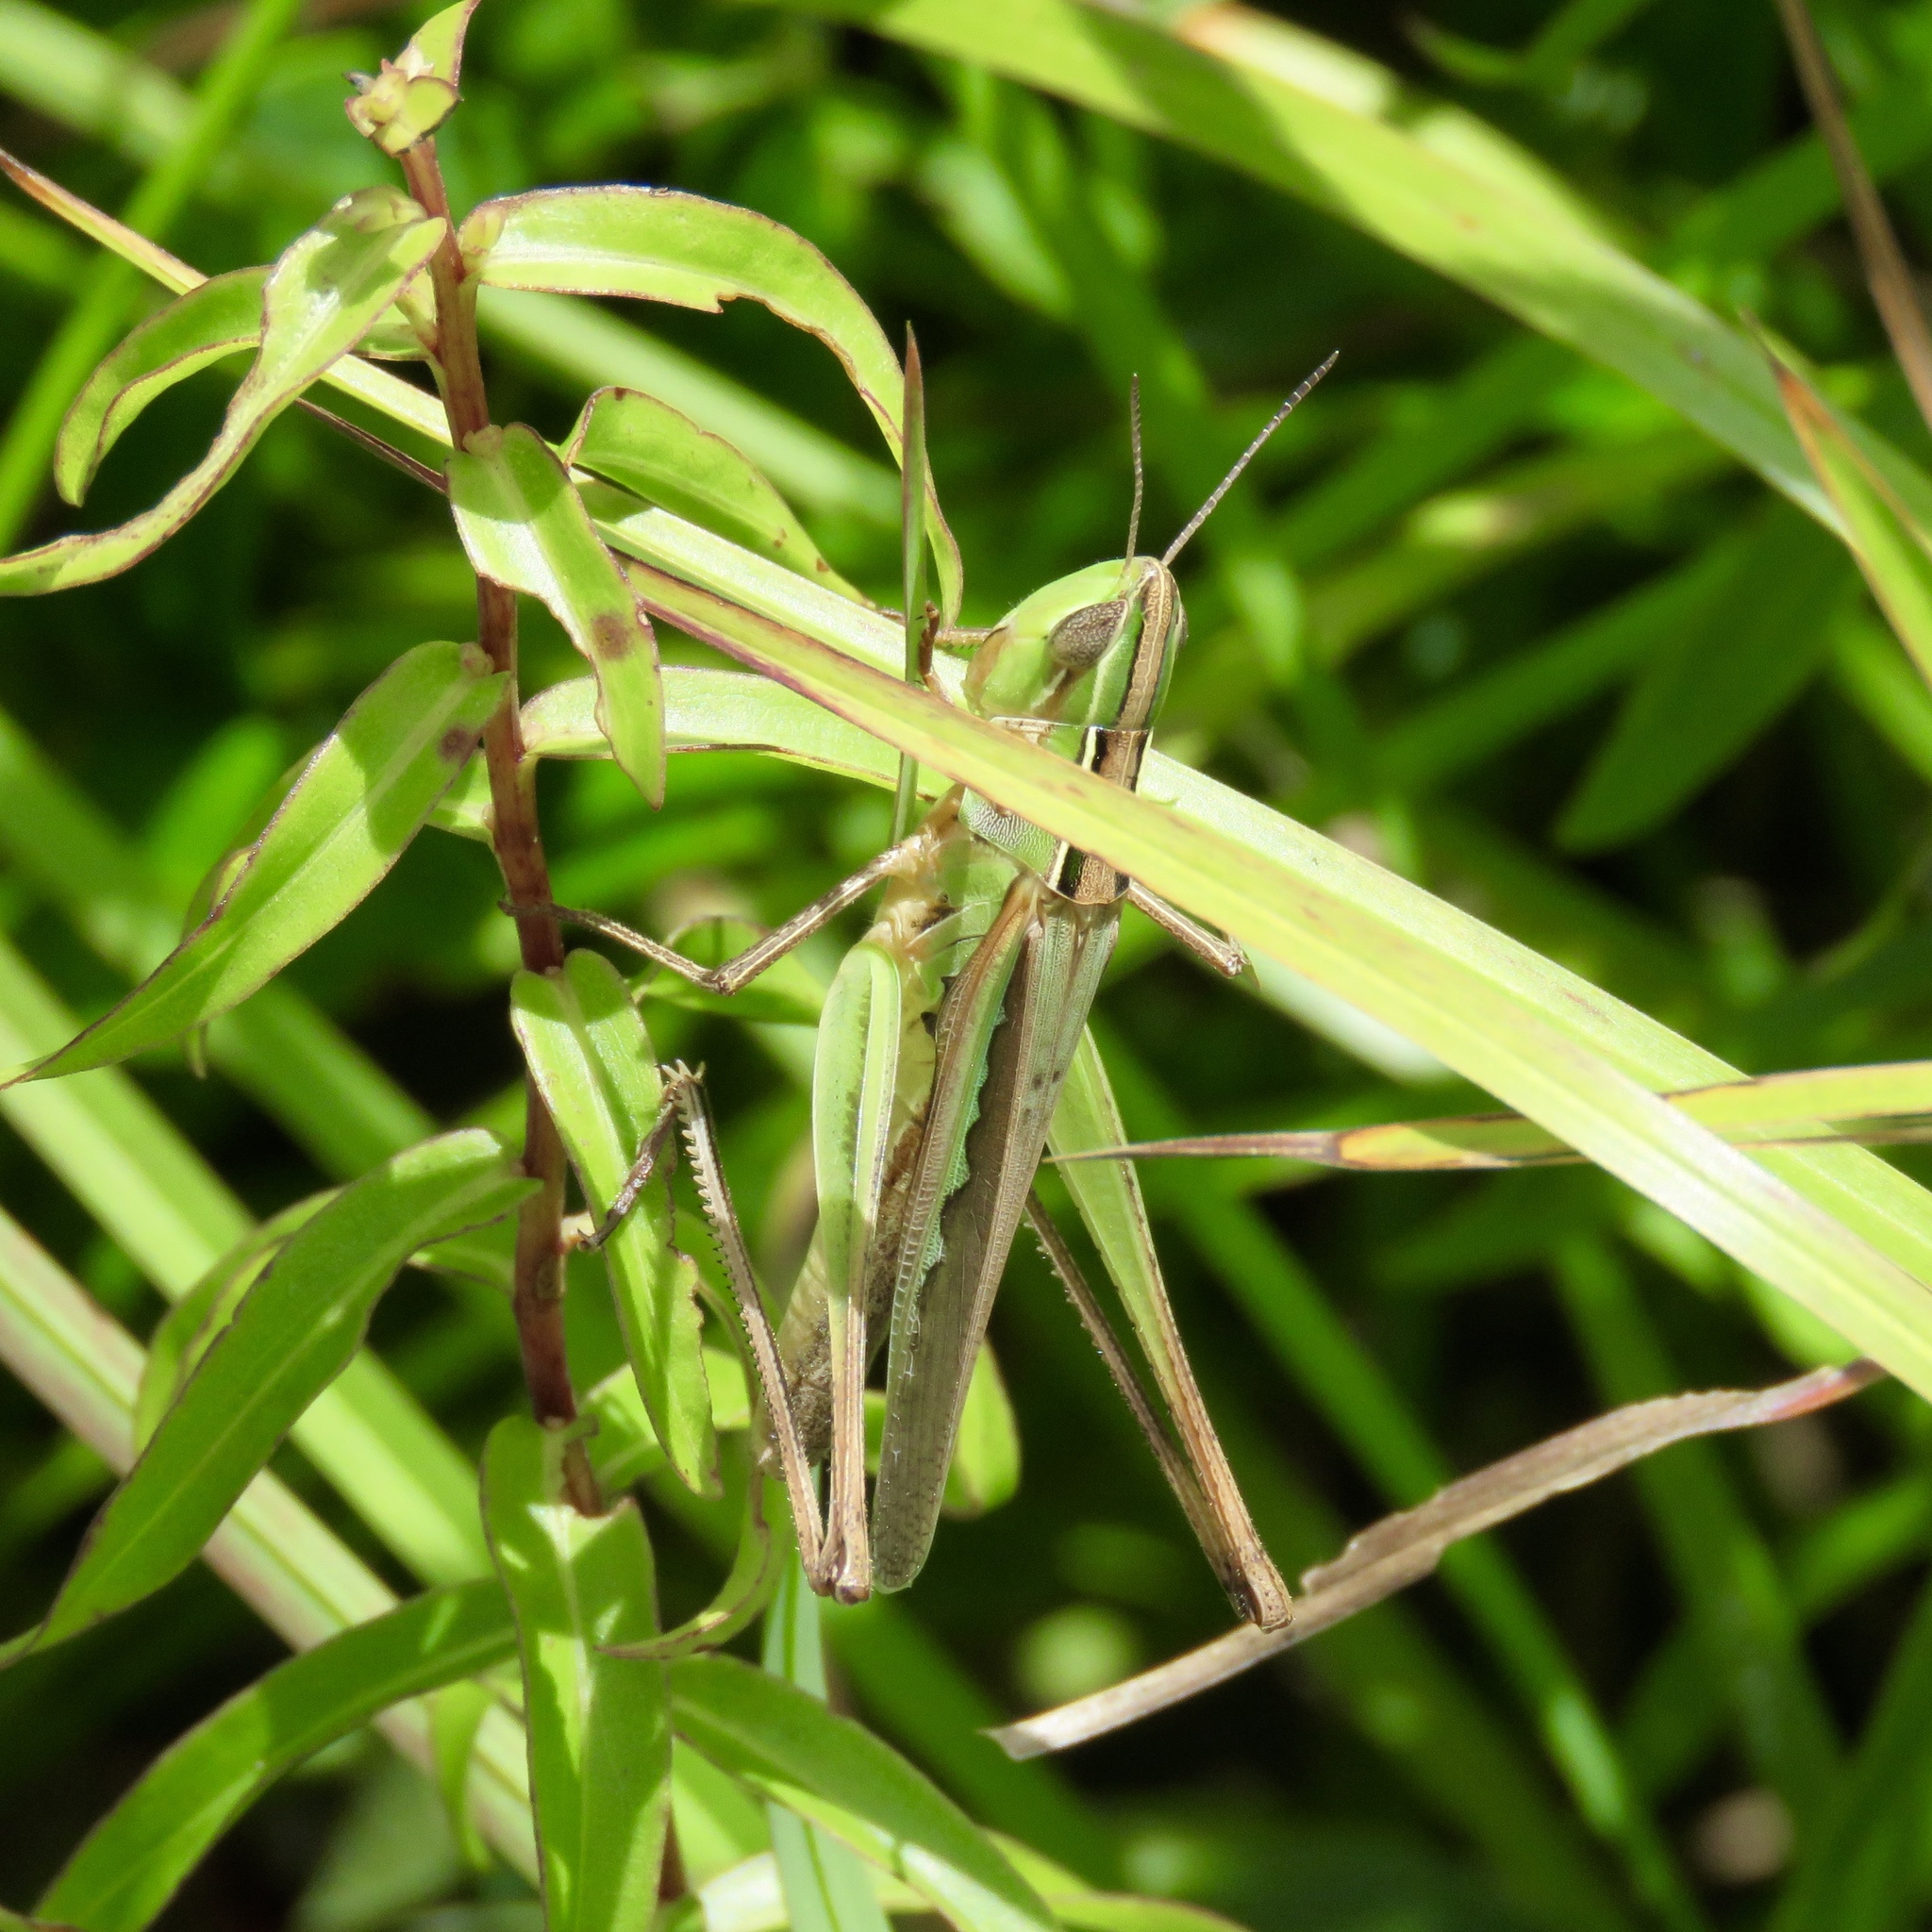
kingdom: Animalia
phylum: Arthropoda
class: Insecta
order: Orthoptera
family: Acrididae
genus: Syrbula
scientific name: Syrbula admirabilis
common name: Handsome grasshopper
